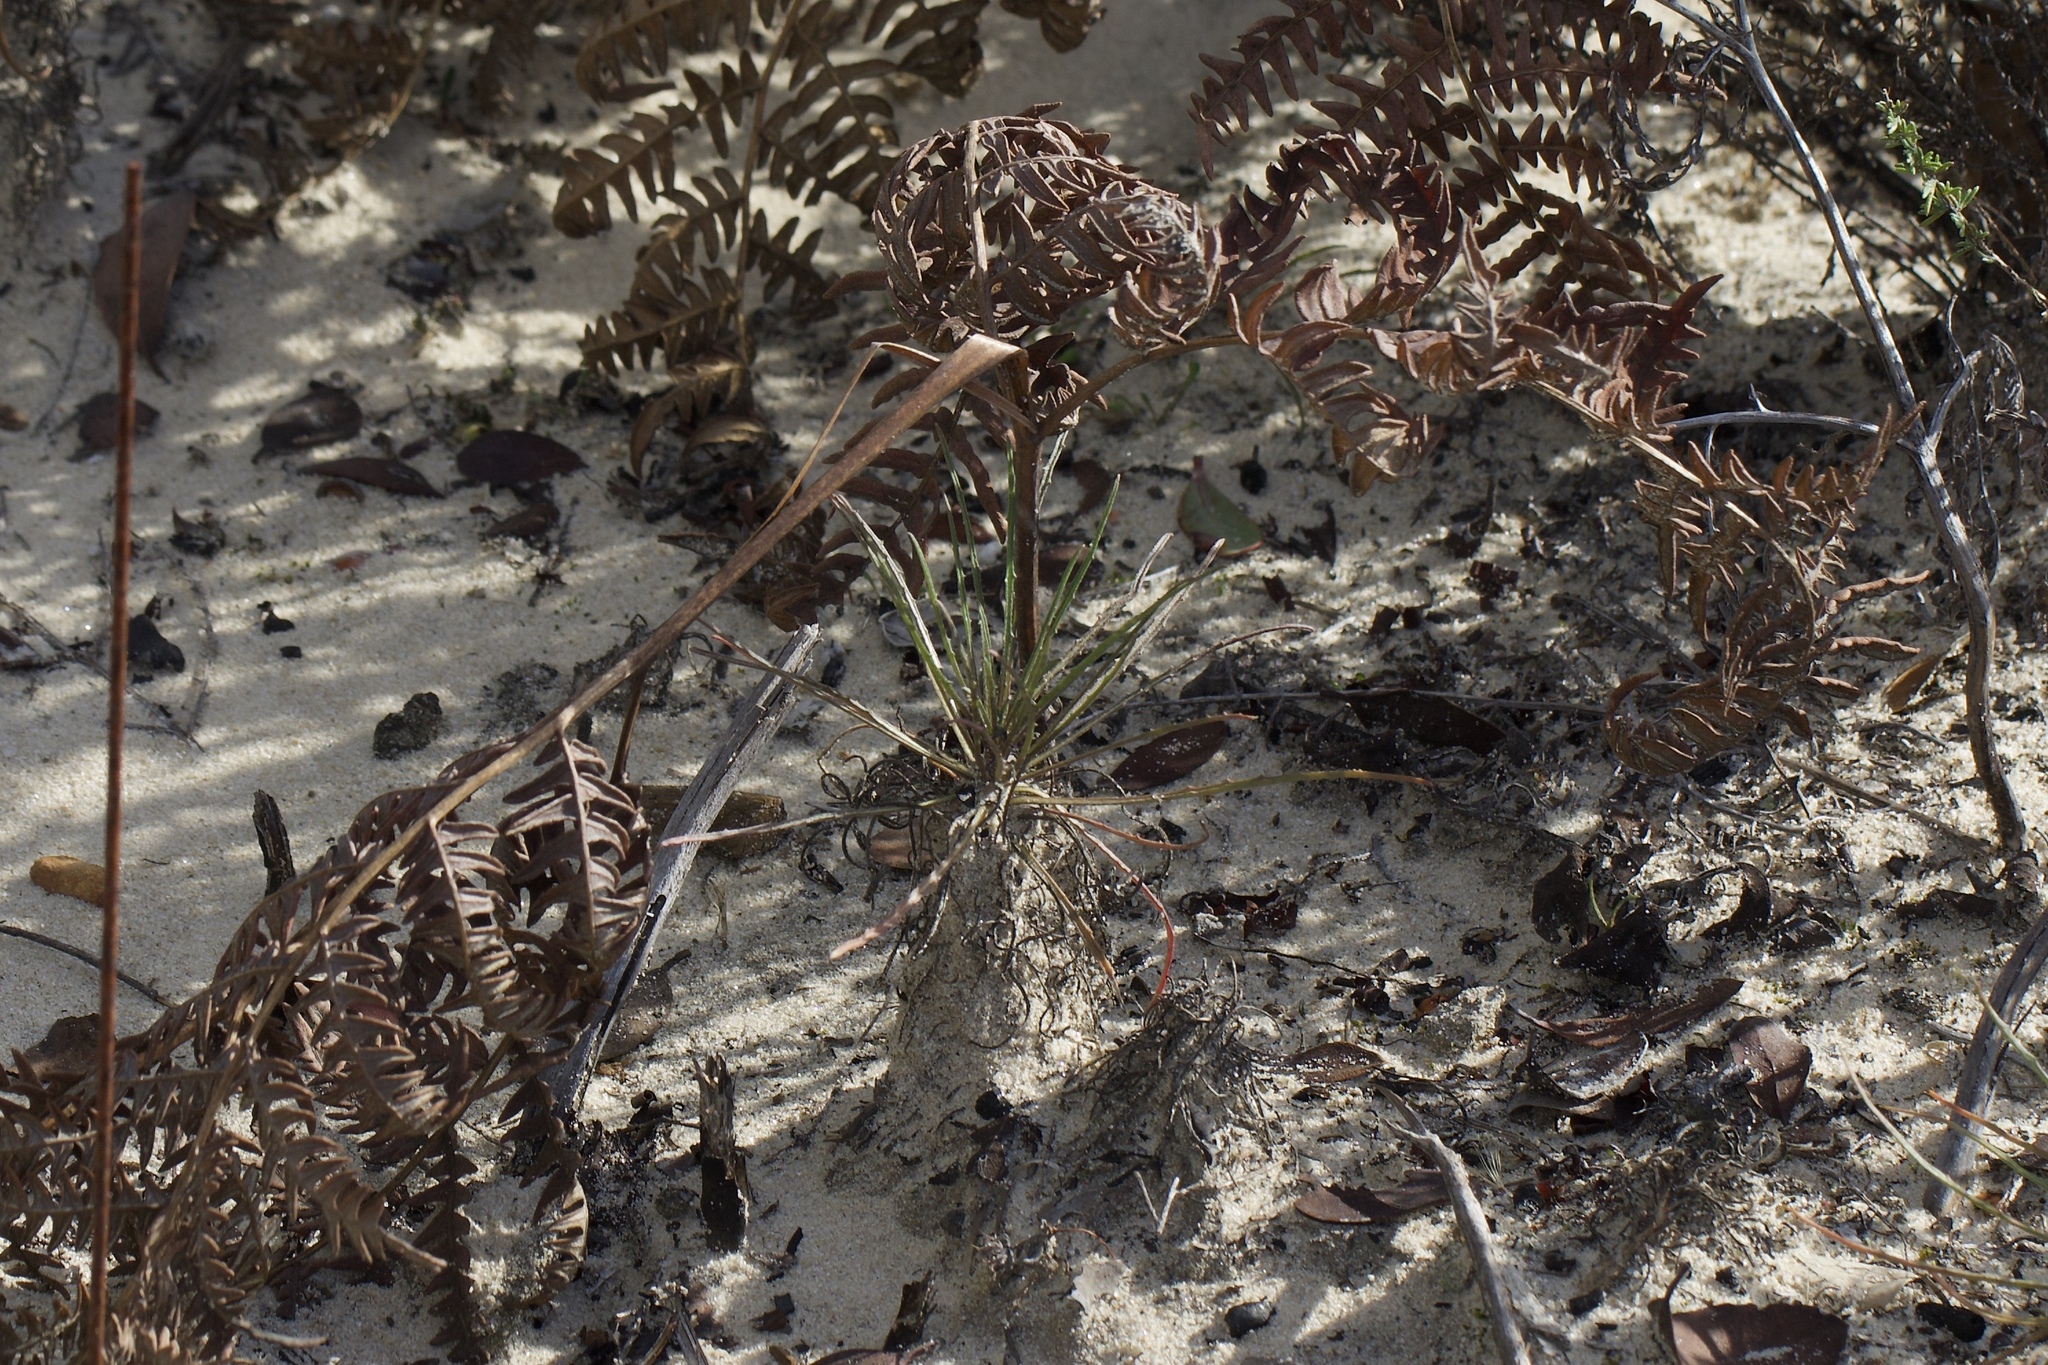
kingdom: Plantae
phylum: Tracheophyta
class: Magnoliopsida
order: Brassicales
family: Brassicaceae
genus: Erysimum
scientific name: Erysimum teretifolium
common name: Ben lomond wallflower
